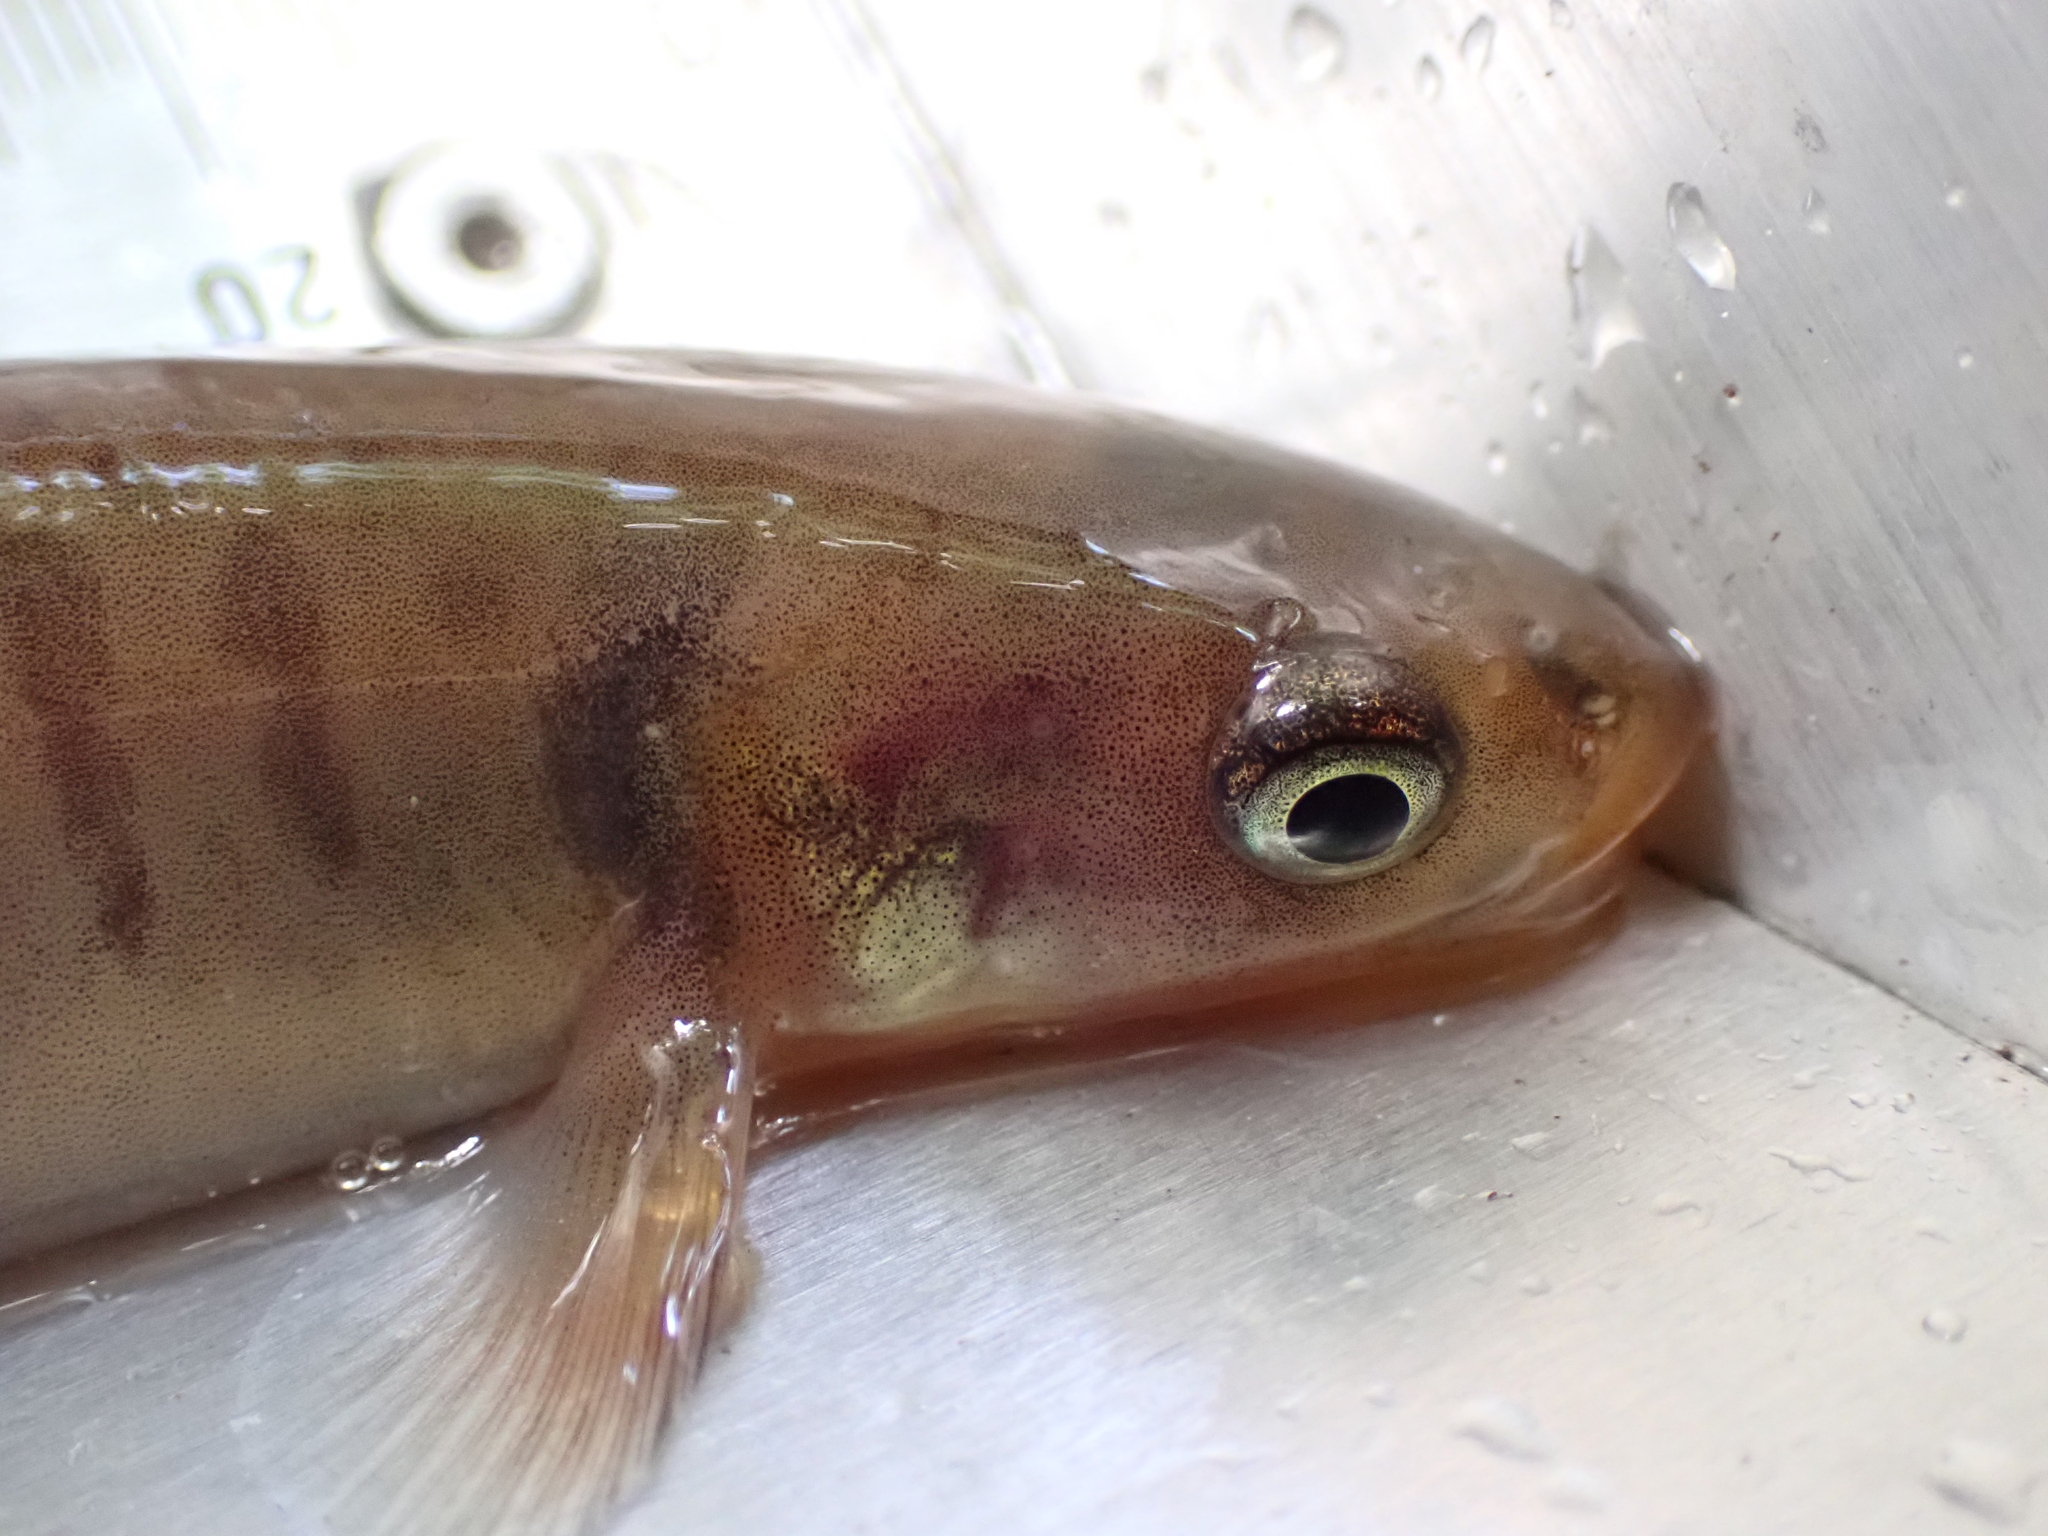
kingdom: Animalia
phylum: Chordata
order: Osmeriformes
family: Galaxiidae
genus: Galaxias
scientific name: Galaxias postvectis
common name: Shortjaw kokopu
